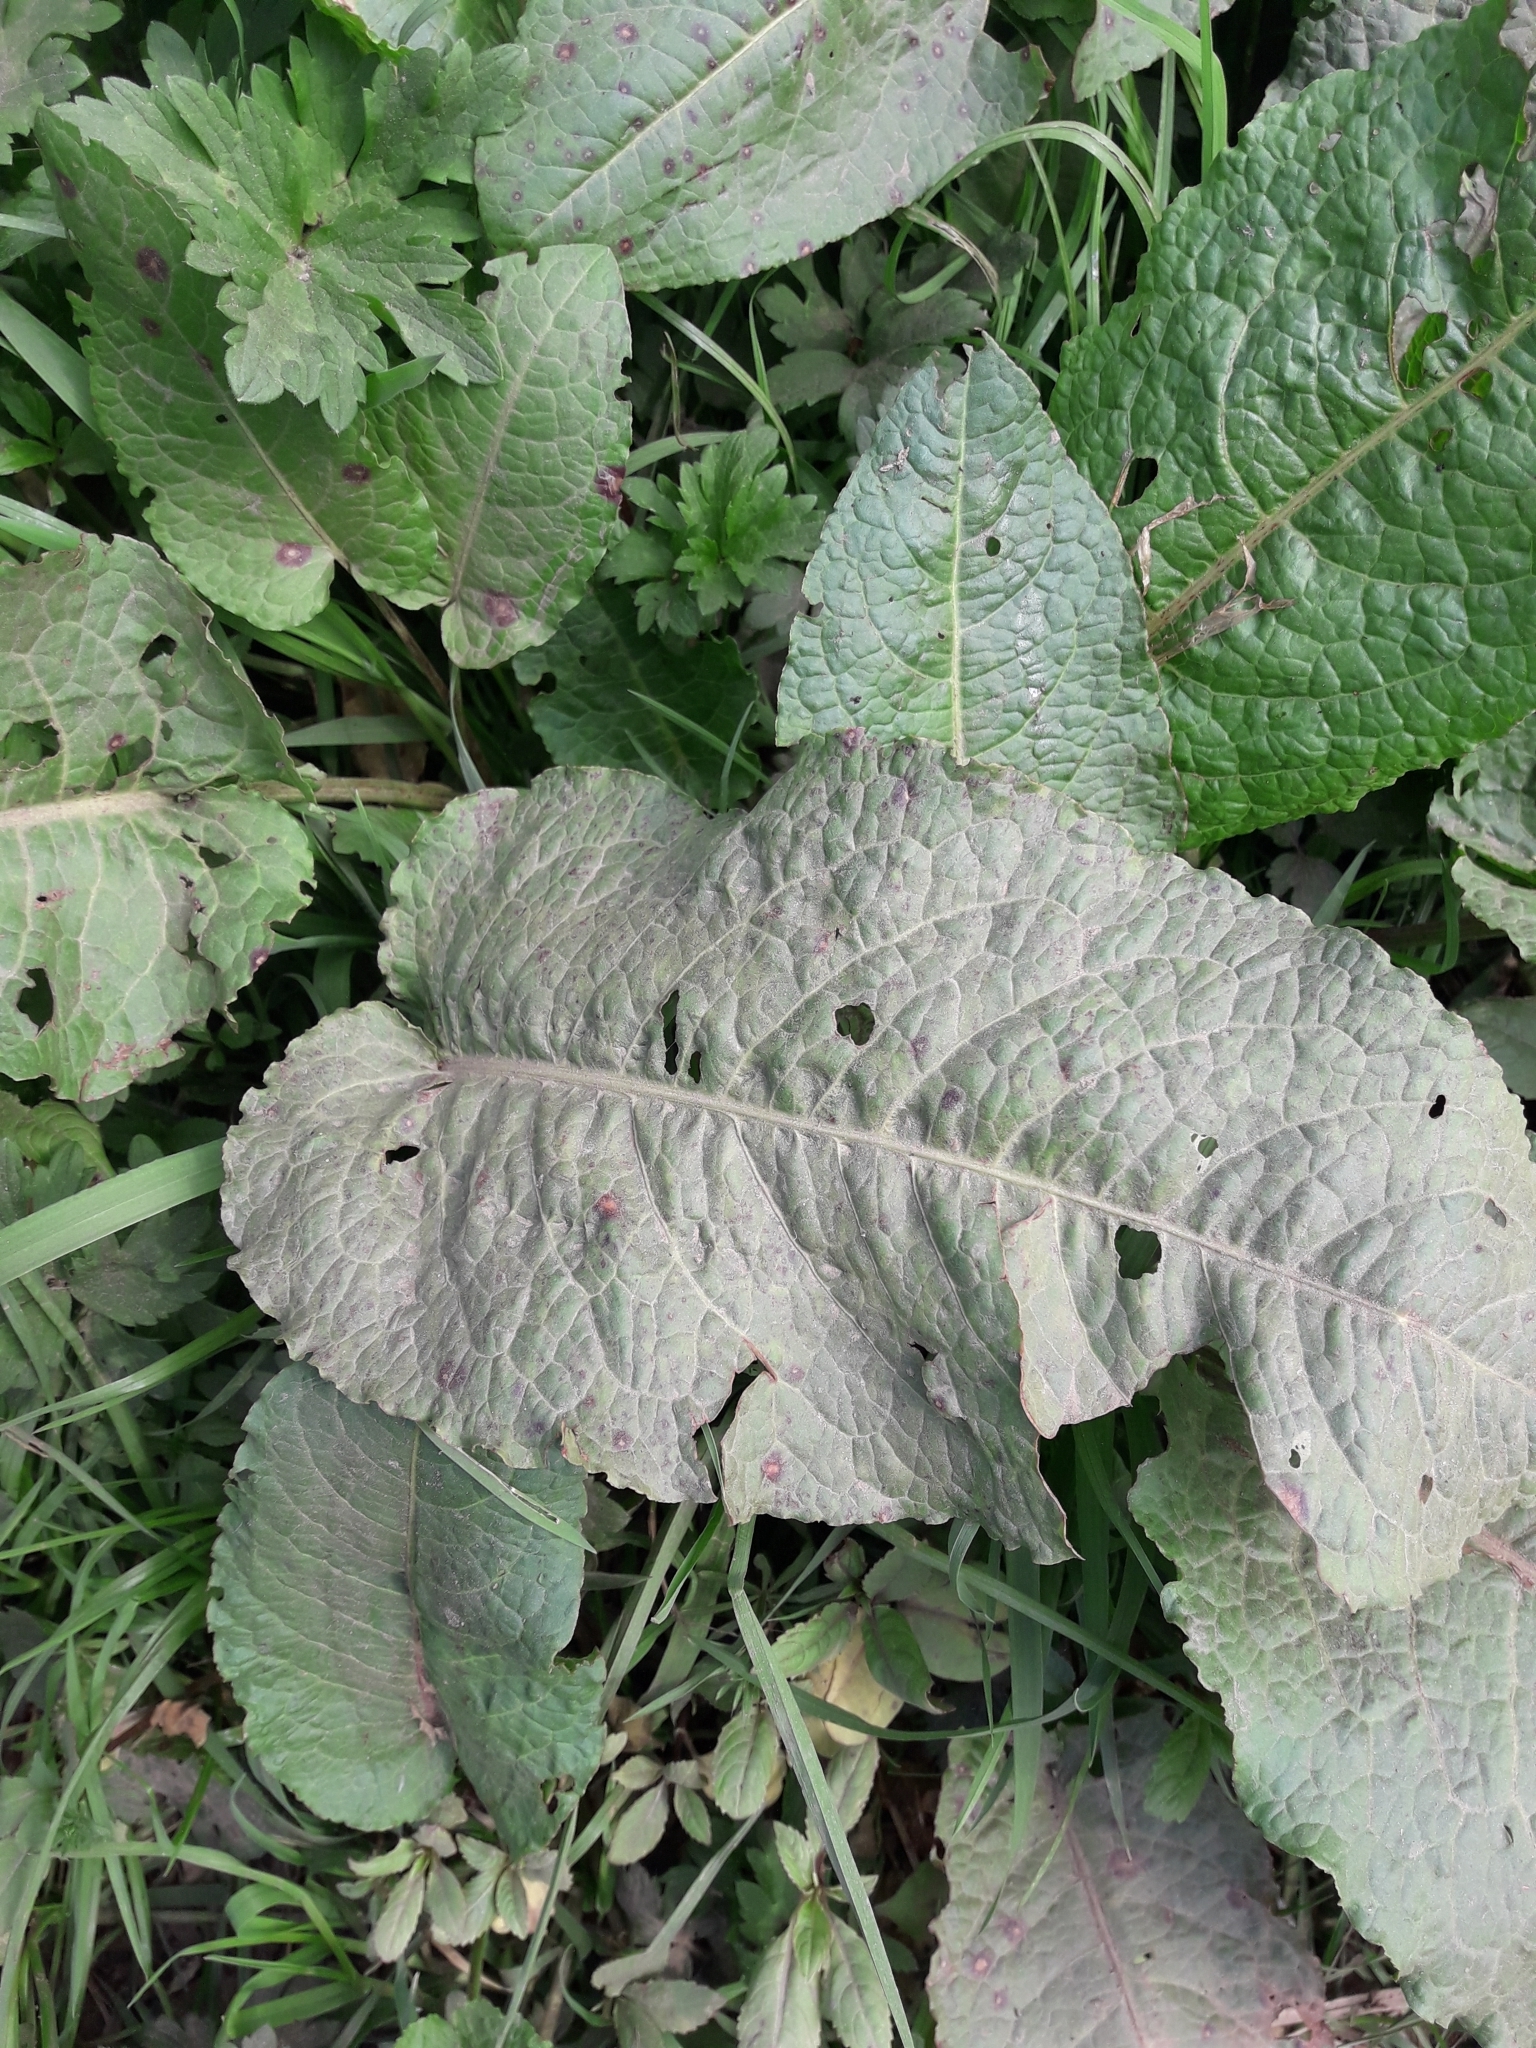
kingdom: Plantae
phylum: Tracheophyta
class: Magnoliopsida
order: Caryophyllales
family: Polygonaceae
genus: Rumex
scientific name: Rumex obtusifolius
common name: Bitter dock
